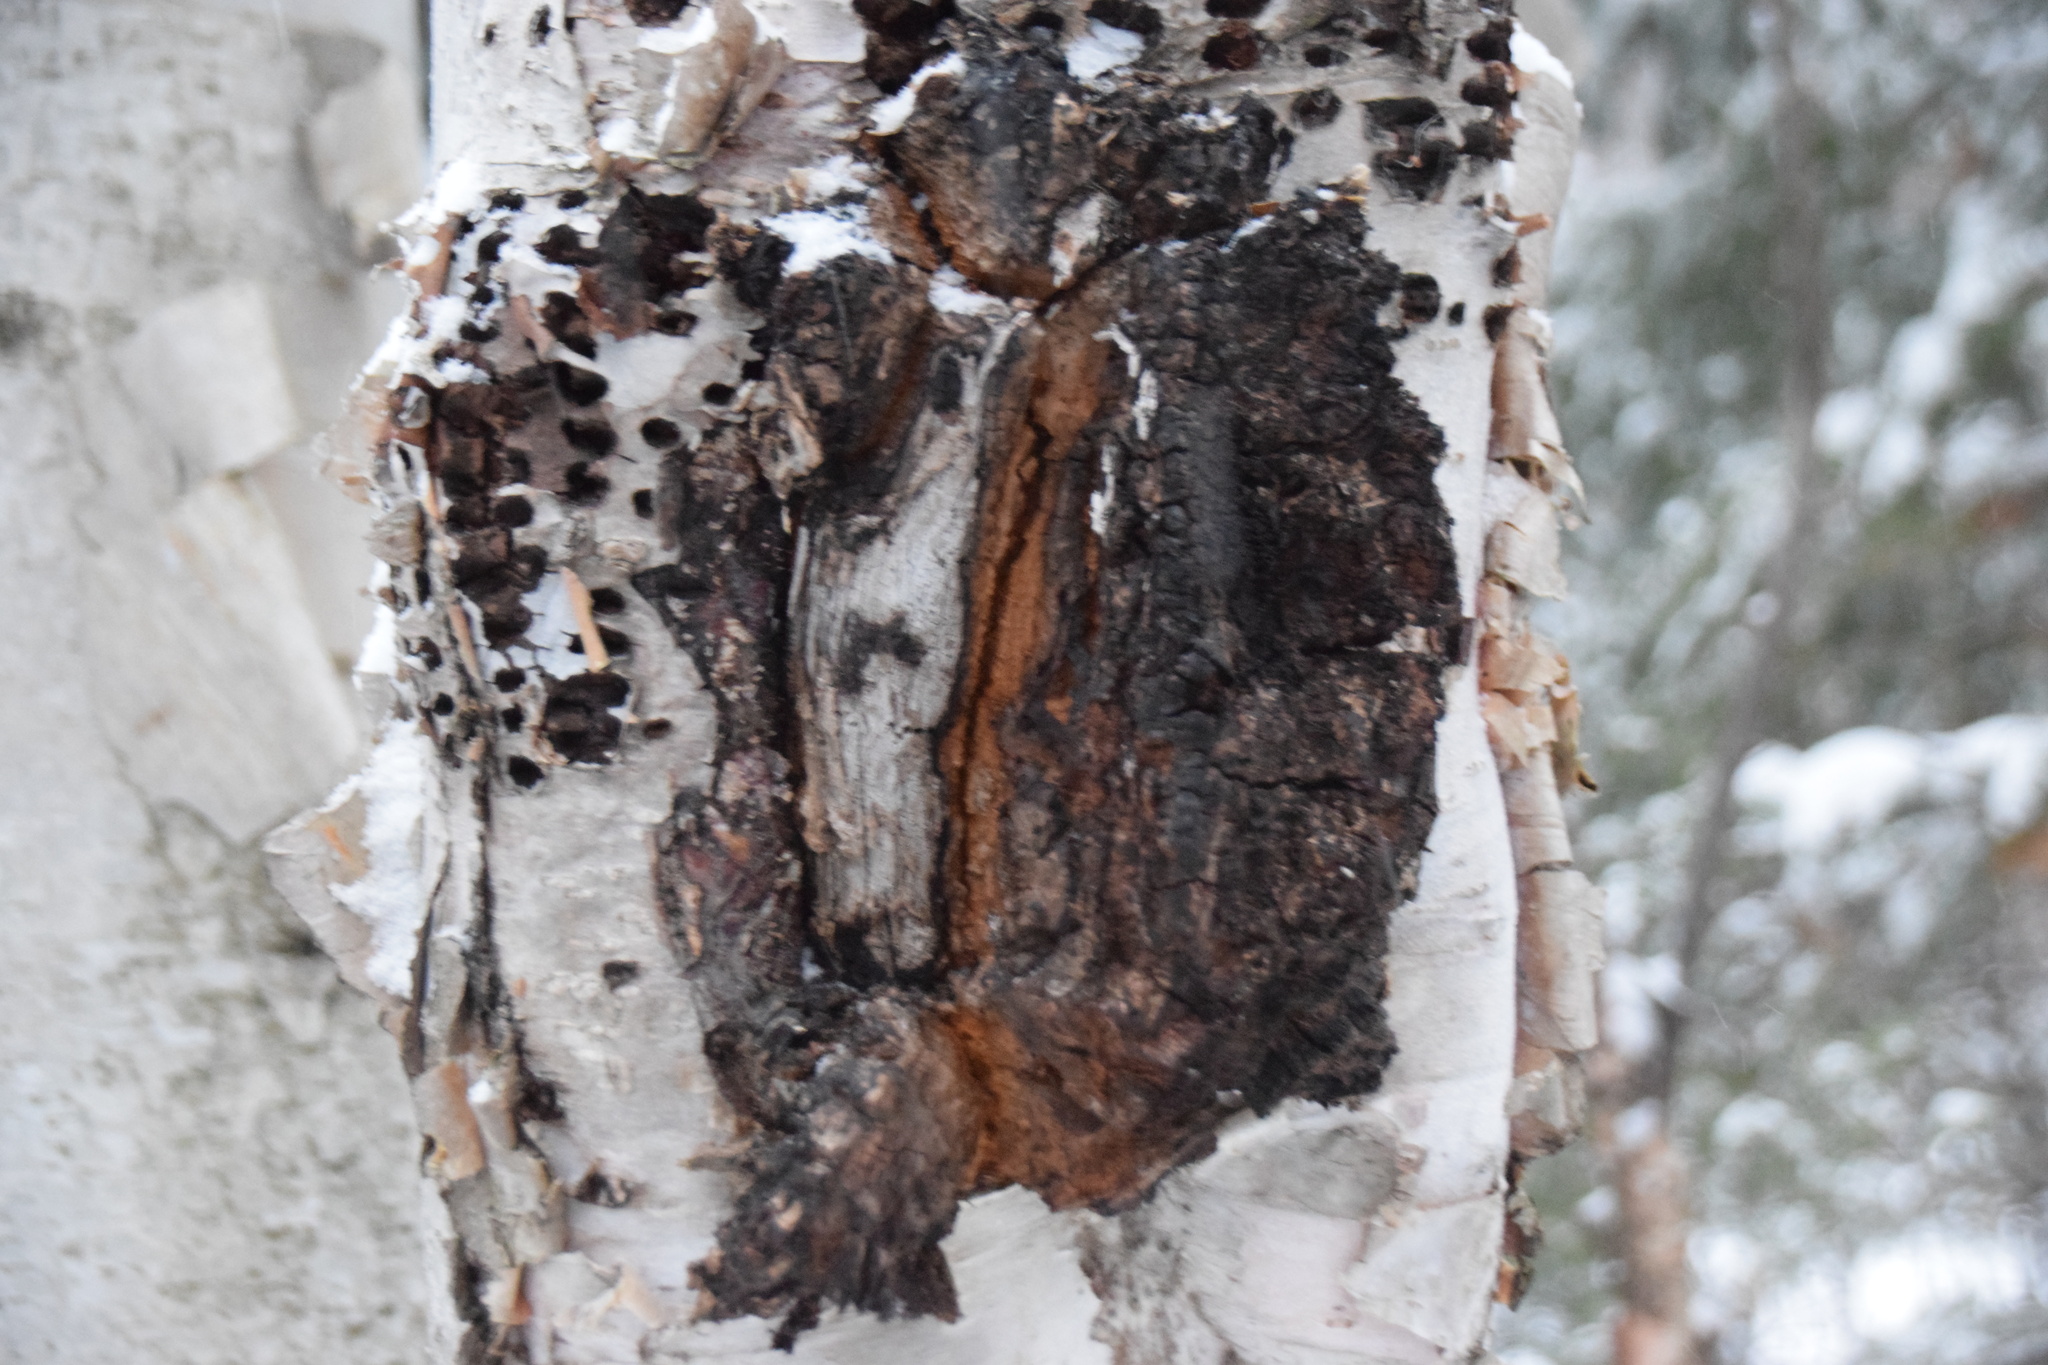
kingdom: Fungi
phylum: Basidiomycota
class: Agaricomycetes
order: Hymenochaetales
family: Hymenochaetaceae
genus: Inonotus
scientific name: Inonotus obliquus
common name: Chaga
